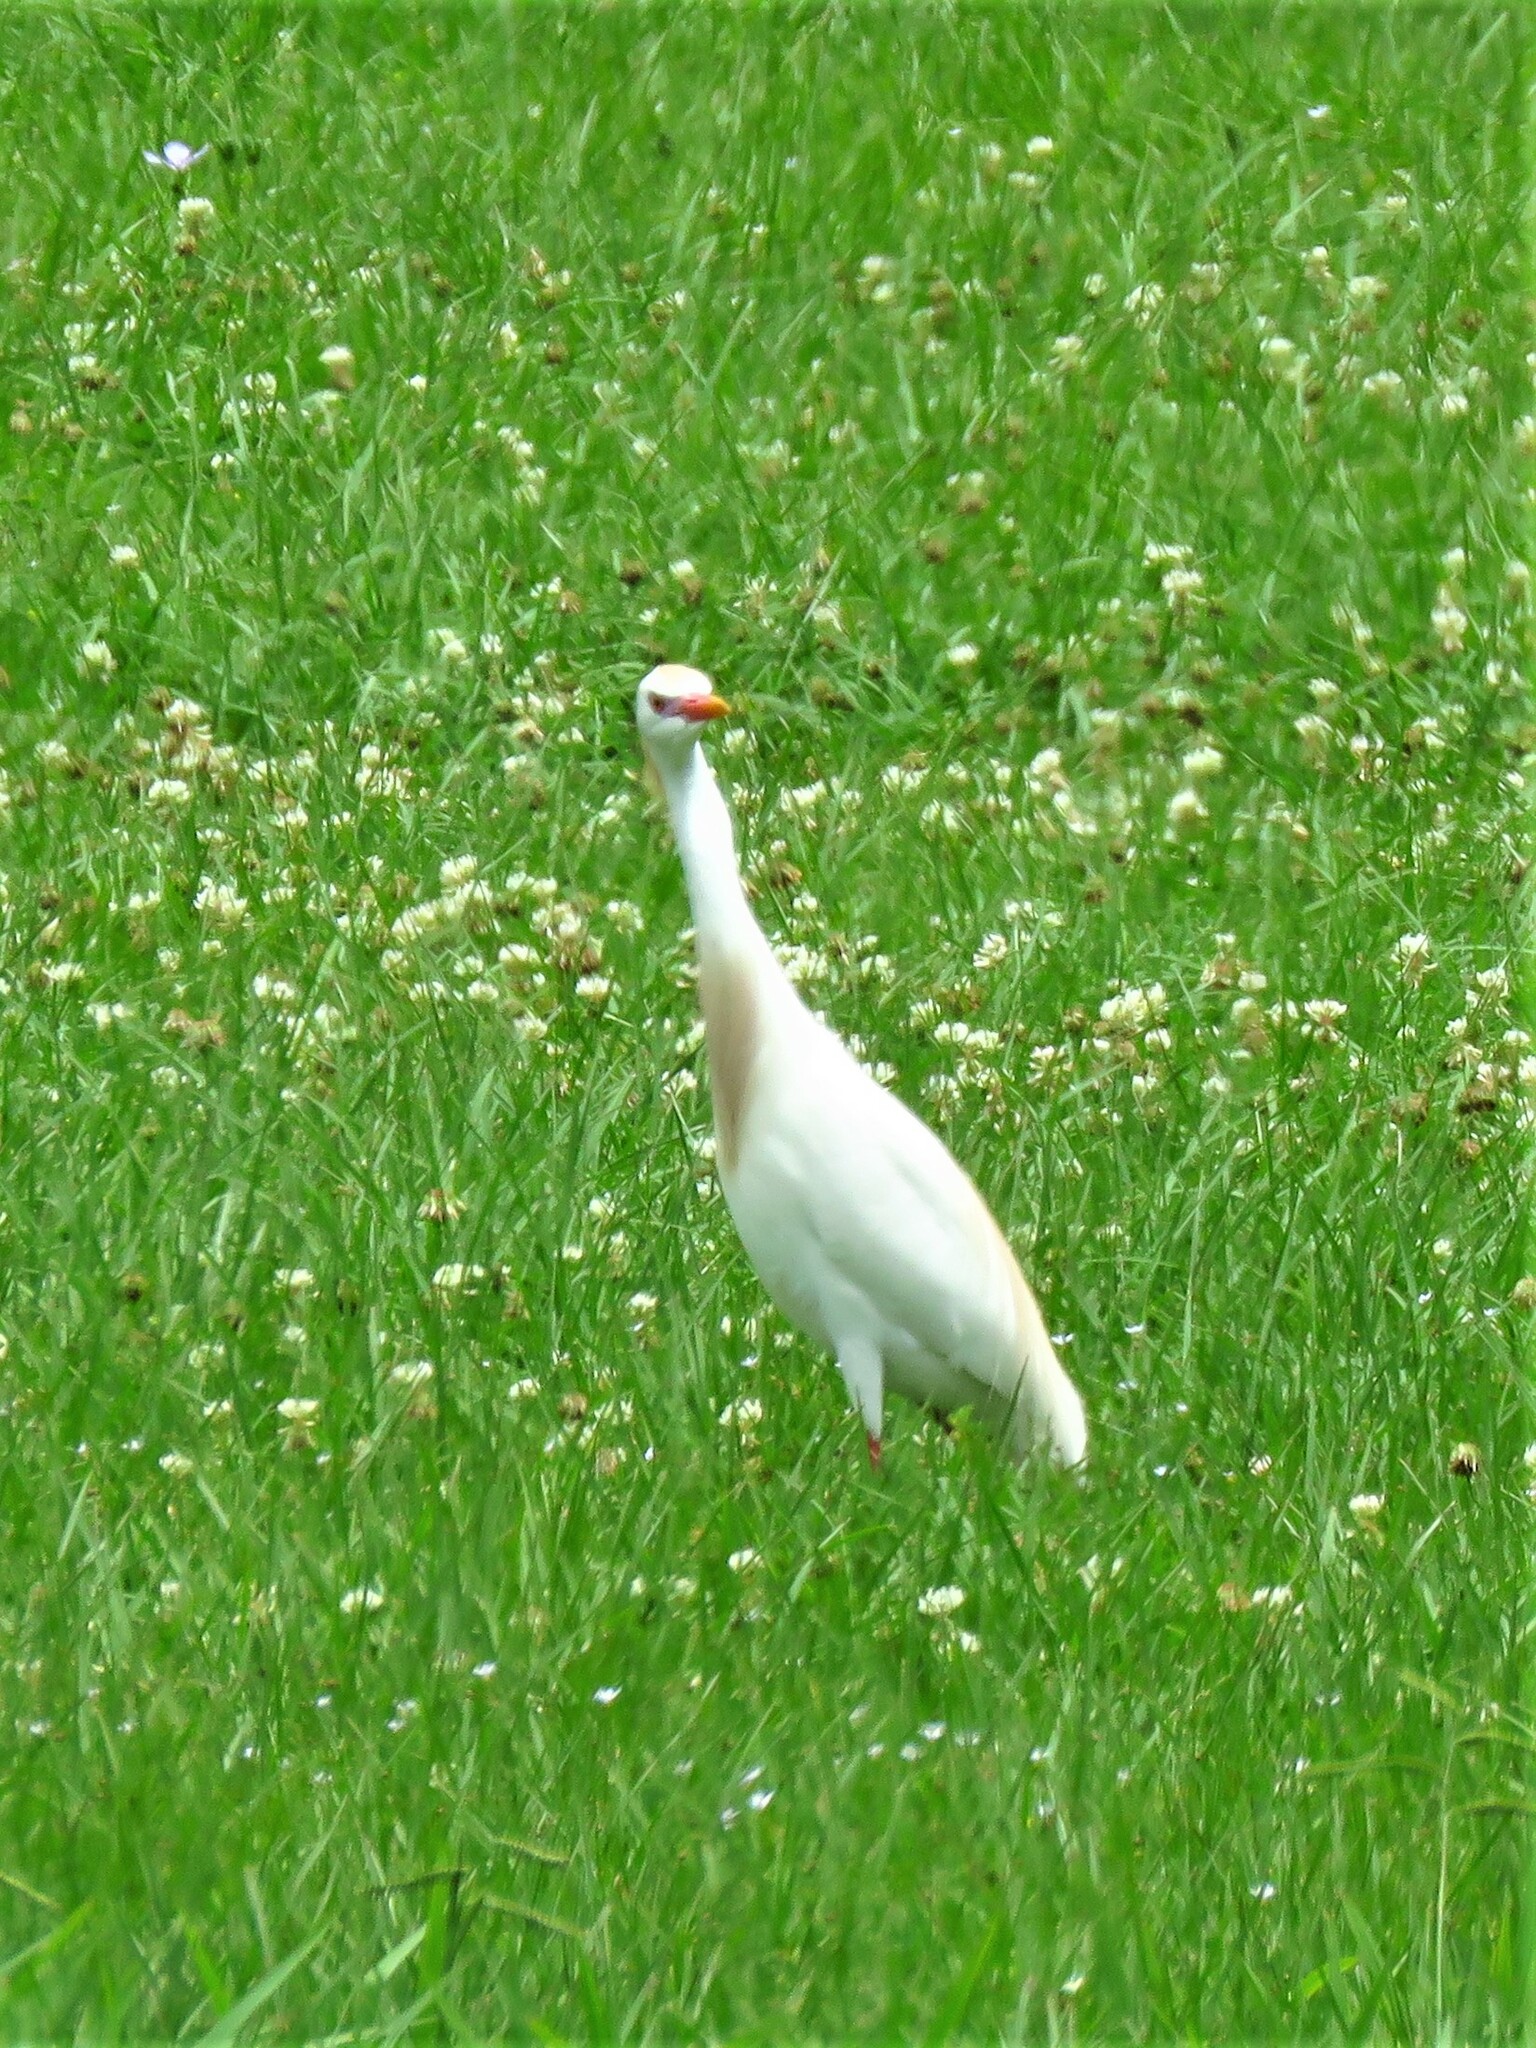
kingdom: Animalia
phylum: Chordata
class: Aves
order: Pelecaniformes
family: Ardeidae
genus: Bubulcus
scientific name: Bubulcus ibis
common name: Cattle egret
